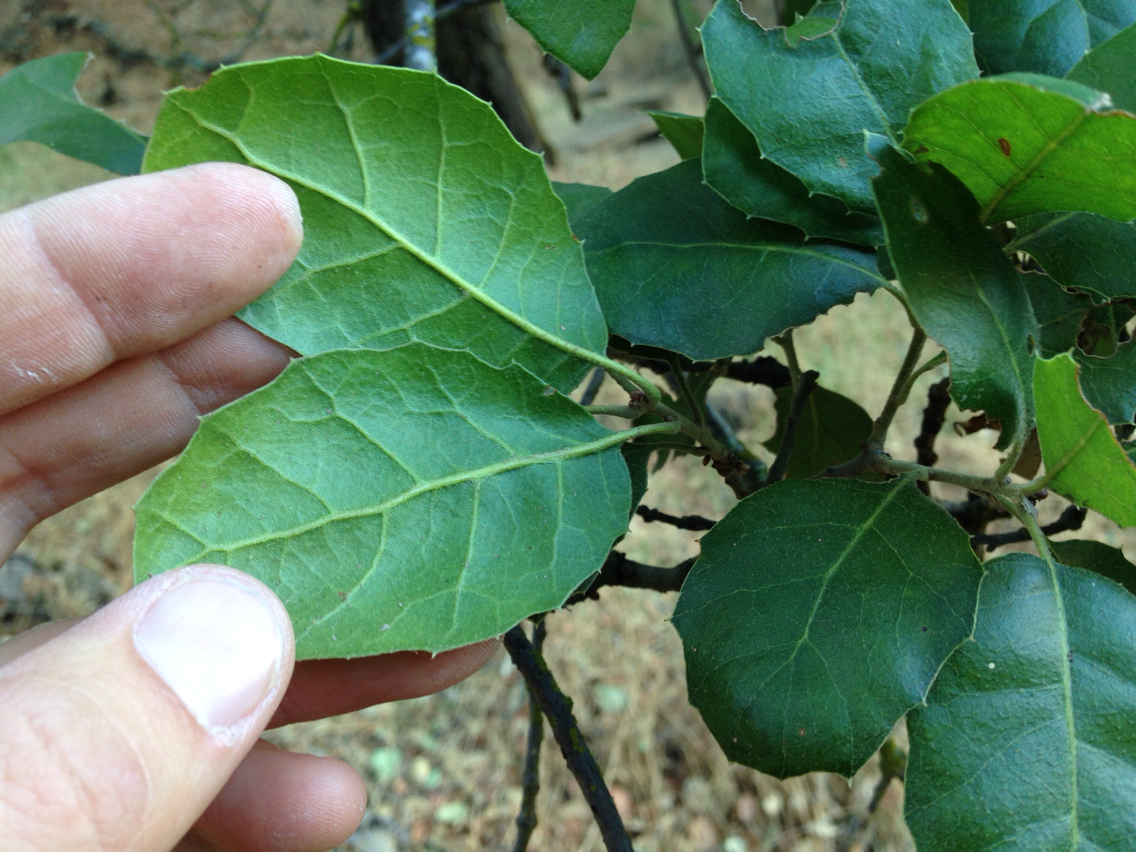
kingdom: Plantae
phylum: Tracheophyta
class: Magnoliopsida
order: Fagales
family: Fagaceae
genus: Quercus
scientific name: Quercus agrifolia
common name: California live oak
